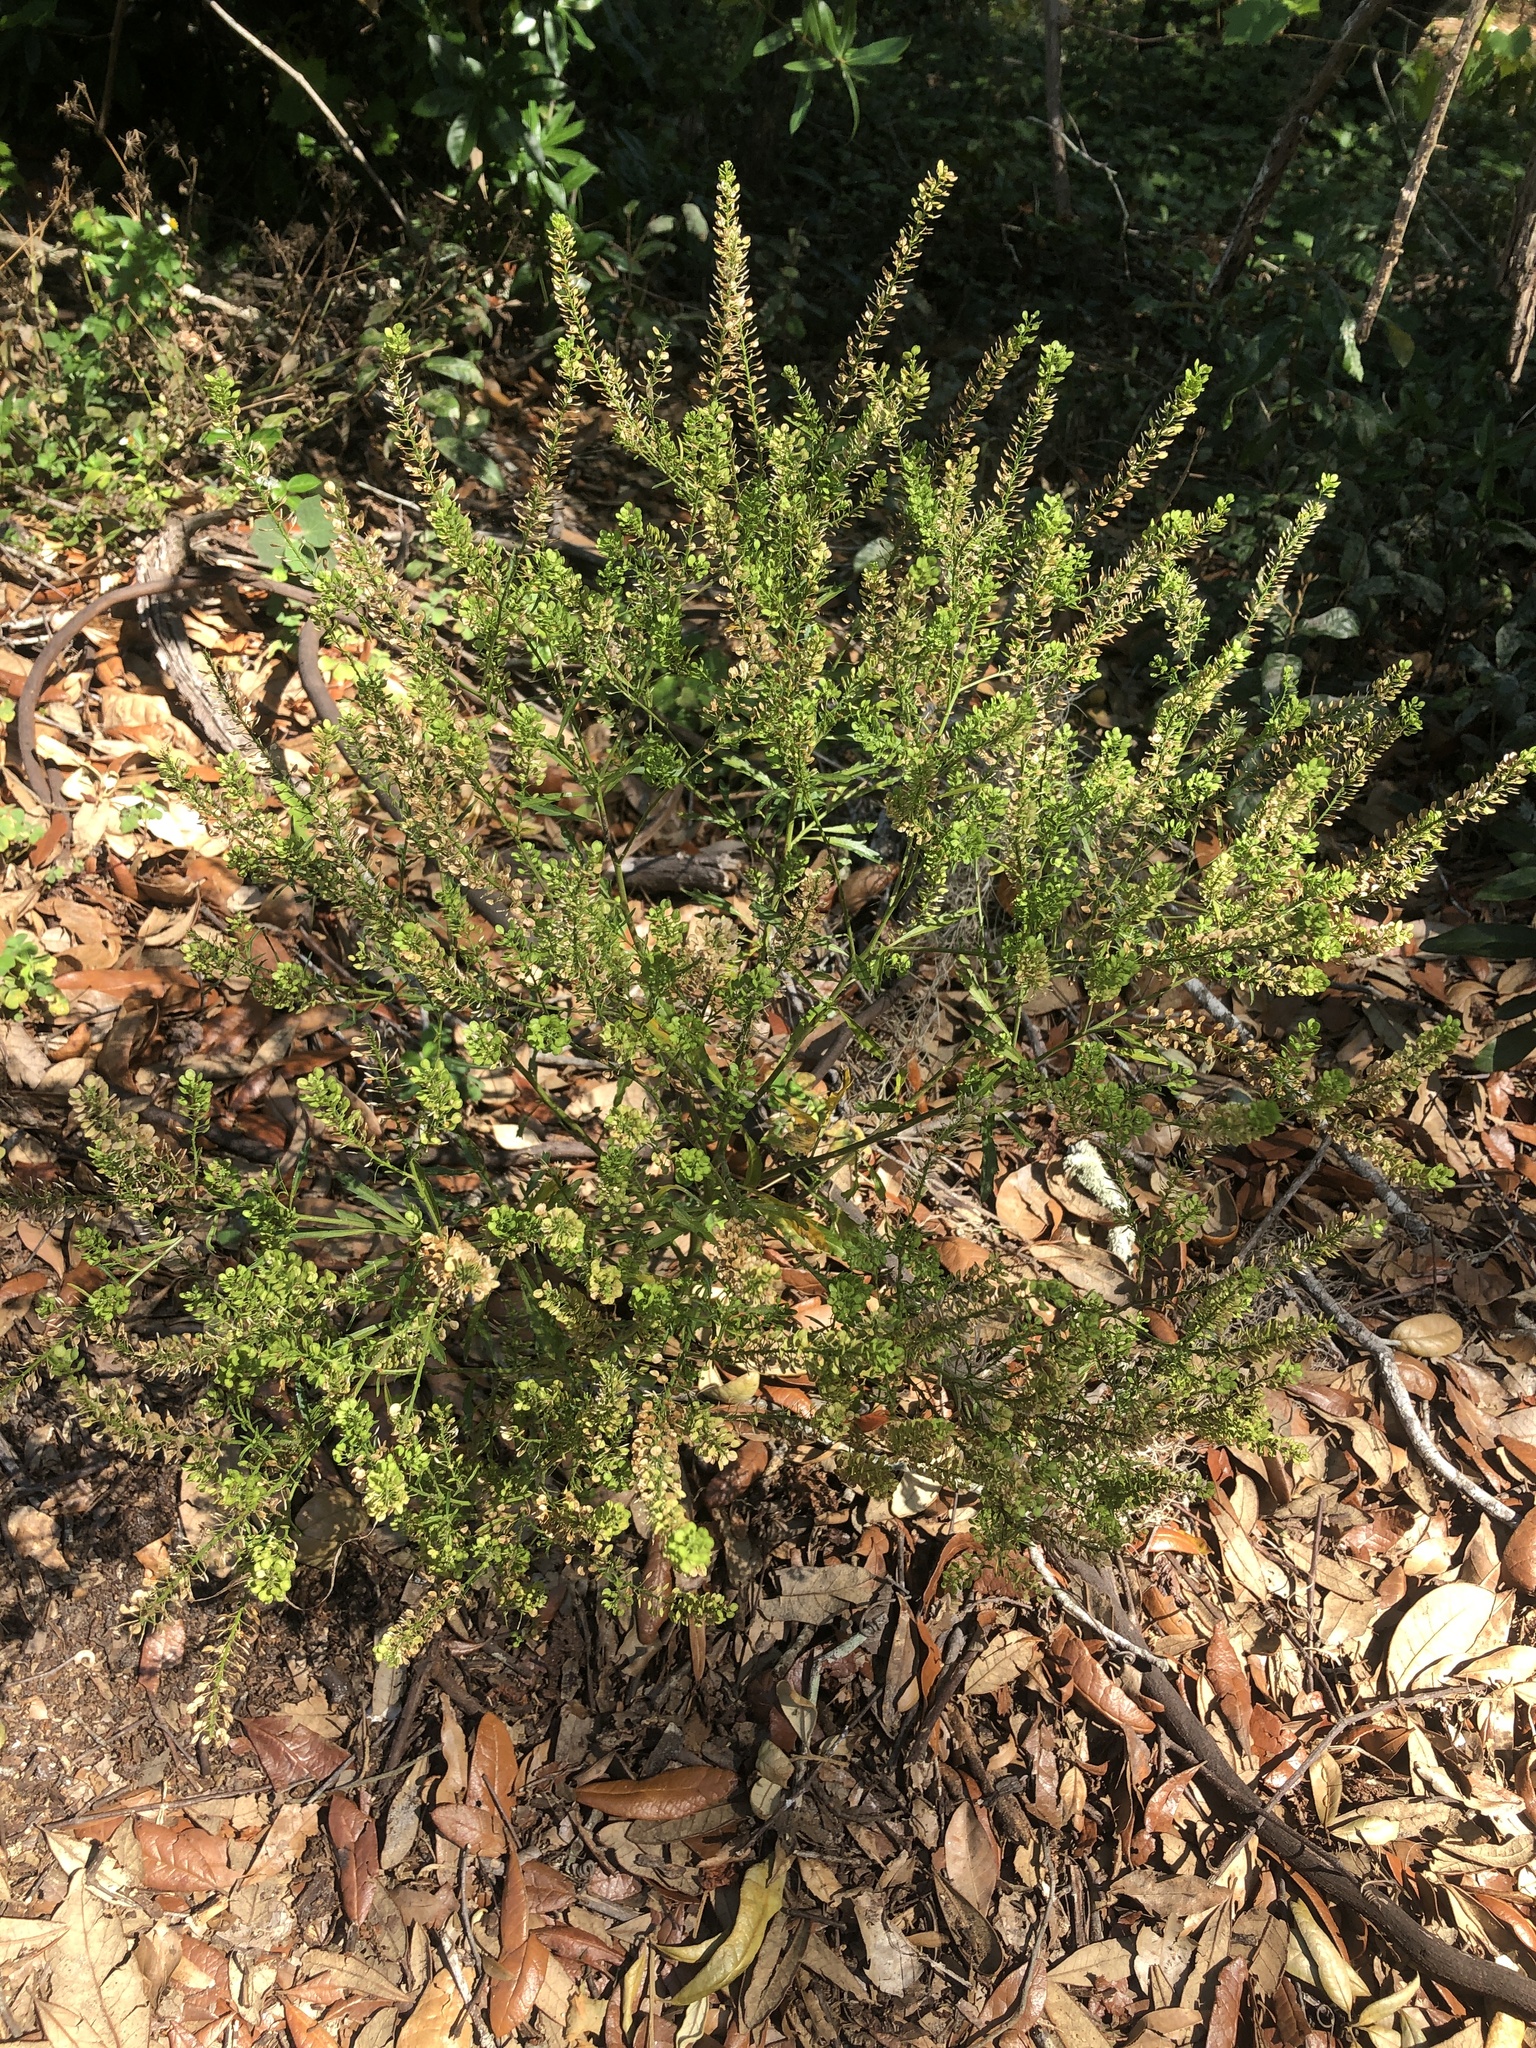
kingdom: Plantae
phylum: Tracheophyta
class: Magnoliopsida
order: Brassicales
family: Brassicaceae
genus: Lepidium
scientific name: Lepidium virginicum
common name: Least pepperwort
